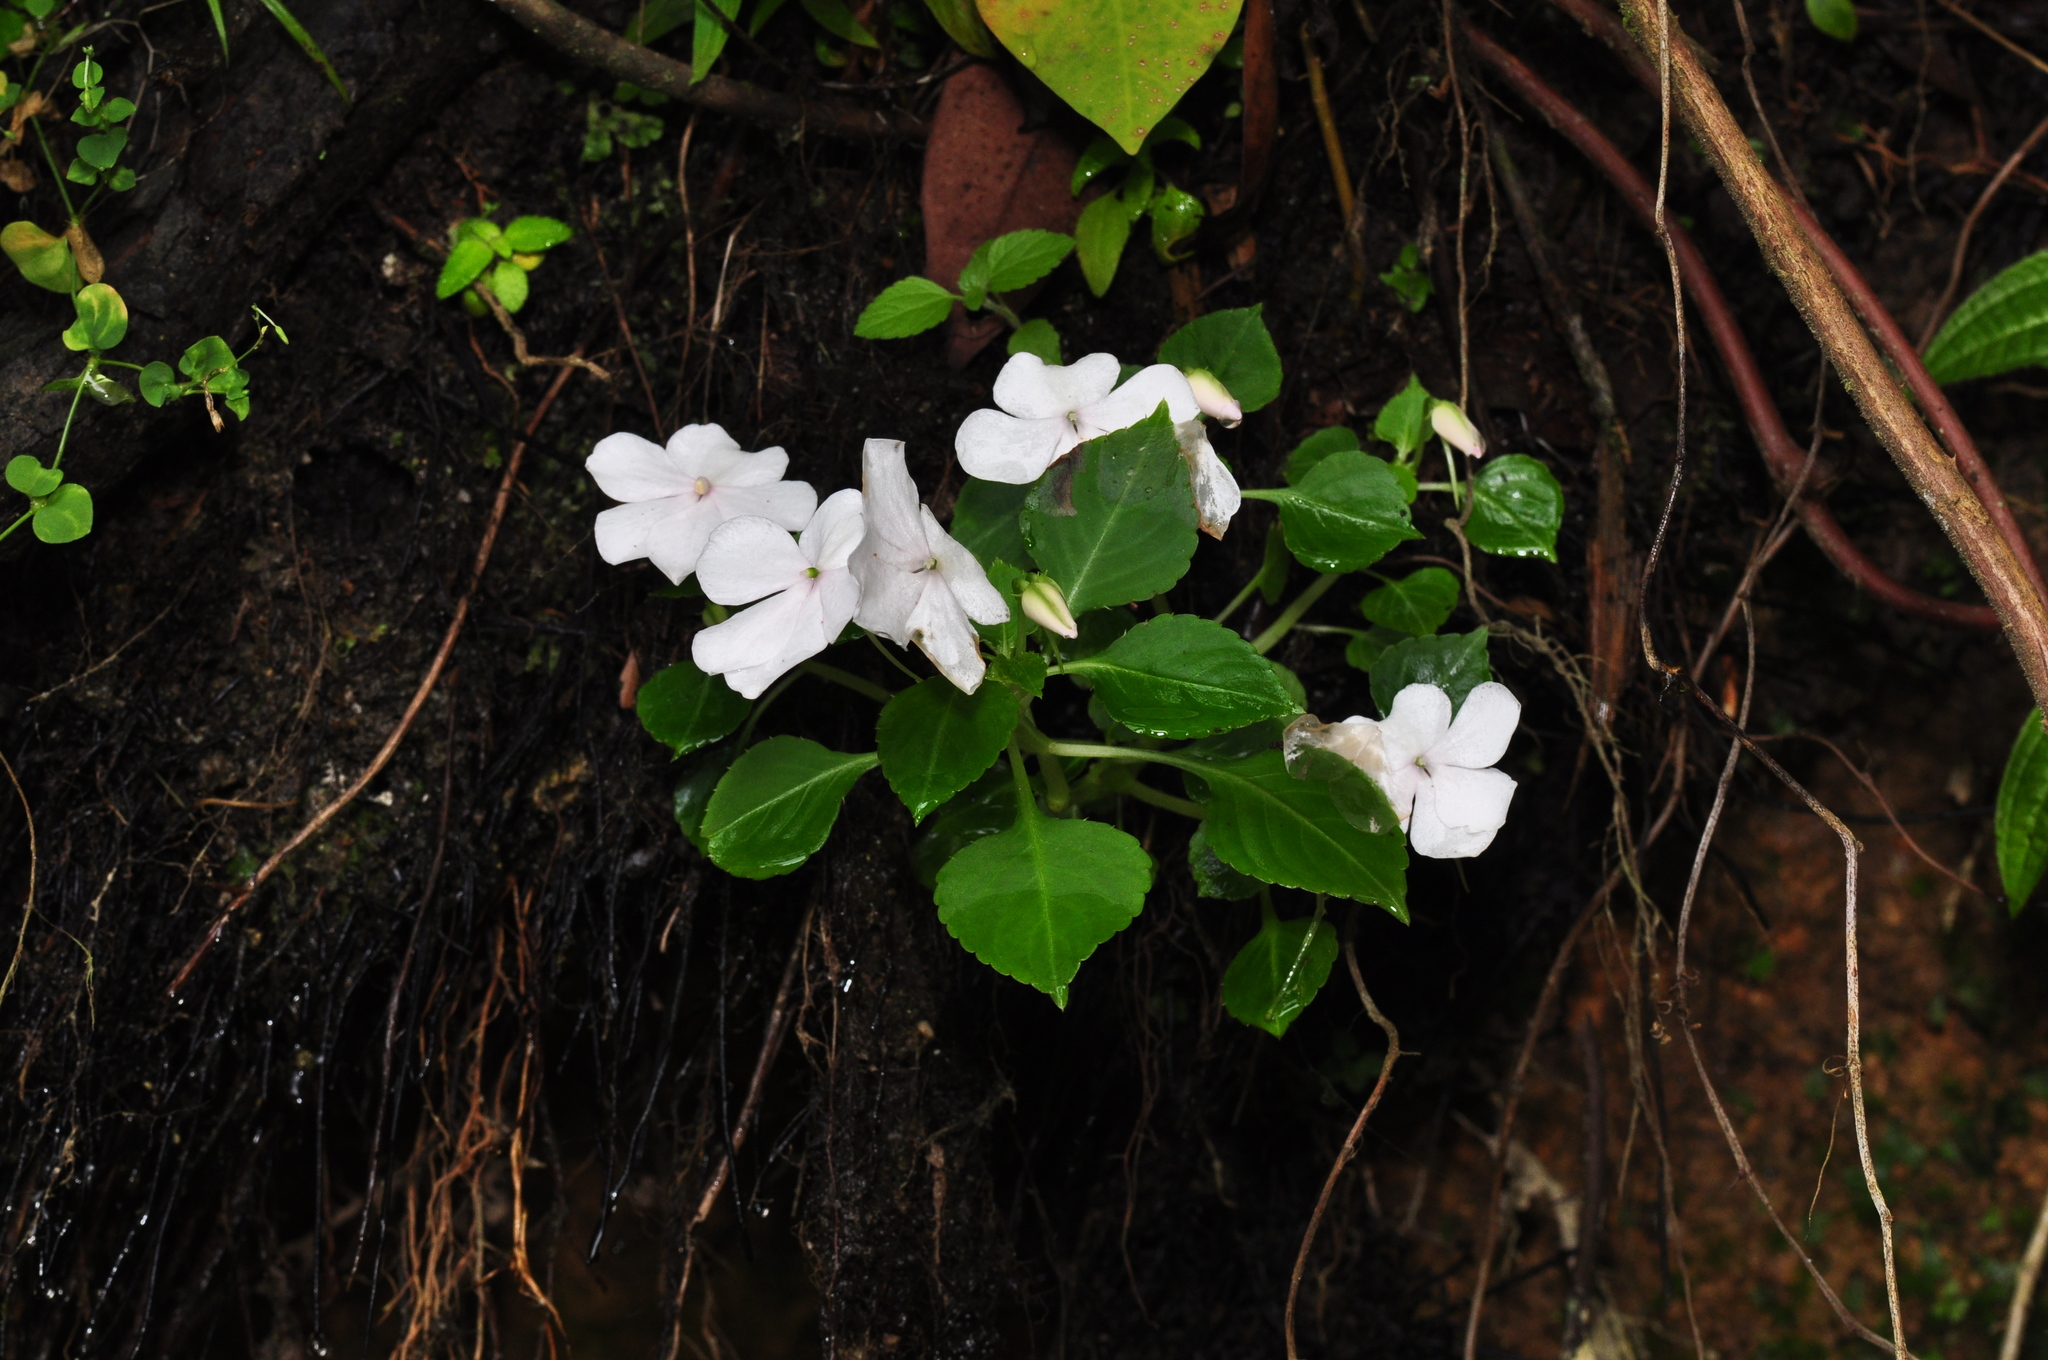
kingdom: Plantae
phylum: Tracheophyta
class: Magnoliopsida
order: Ericales
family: Balsaminaceae
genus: Impatiens
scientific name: Impatiens walleriana
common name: Buzzy lizzy
